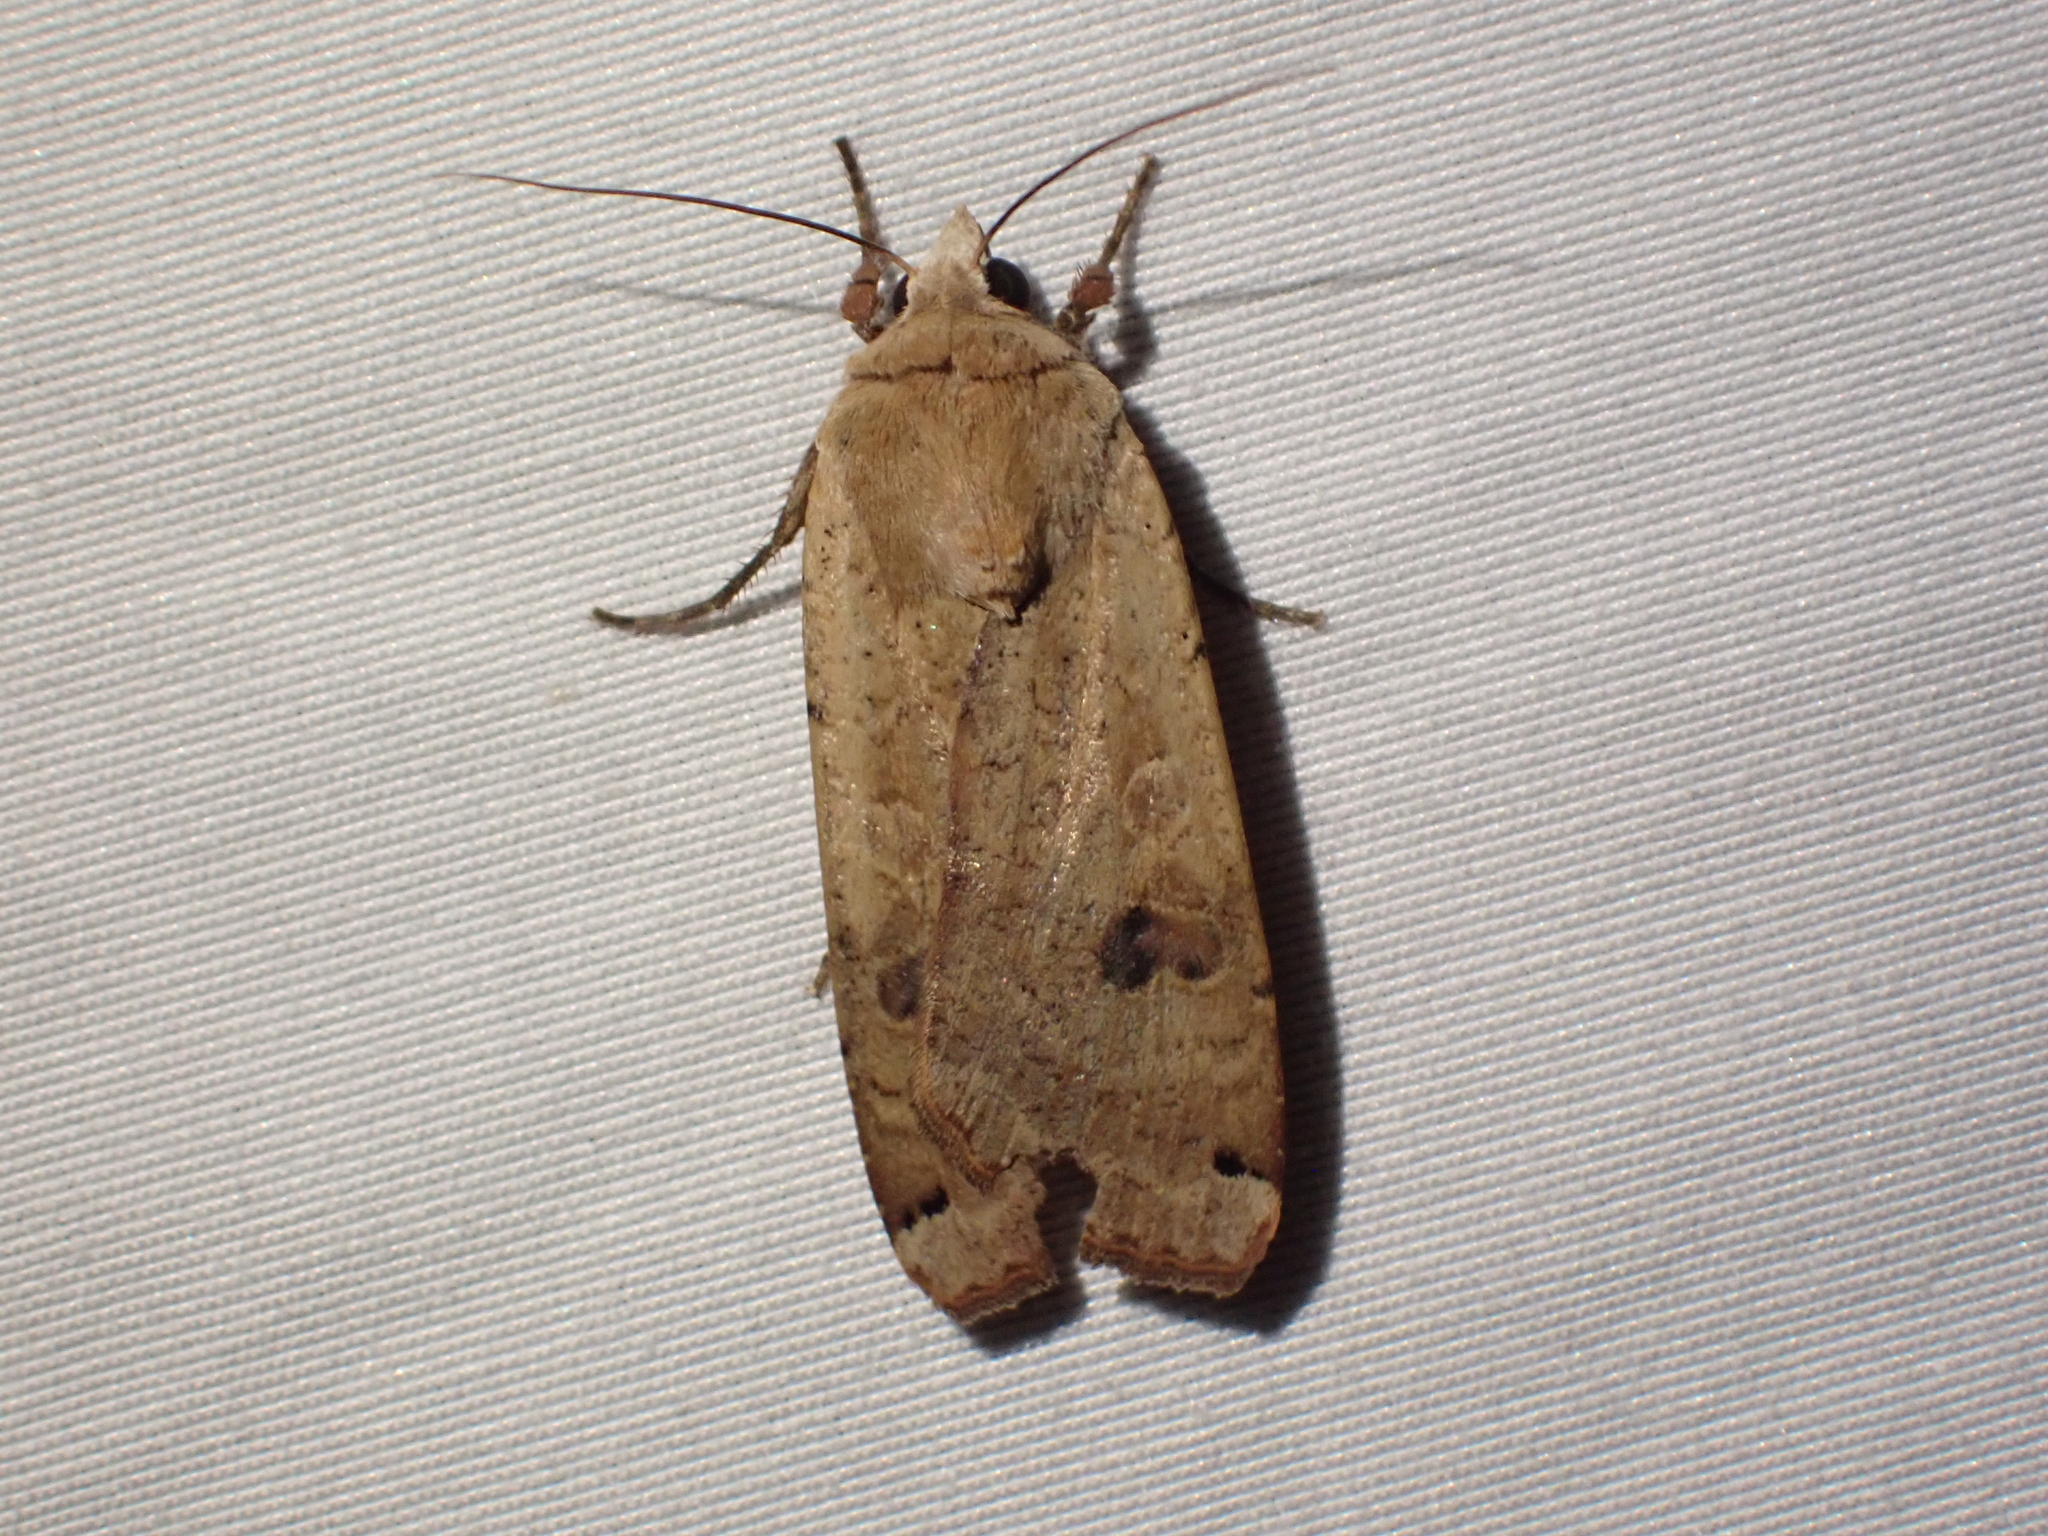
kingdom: Animalia
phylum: Arthropoda
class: Insecta
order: Lepidoptera
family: Noctuidae
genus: Noctua
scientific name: Noctua pronuba
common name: Large yellow underwing
